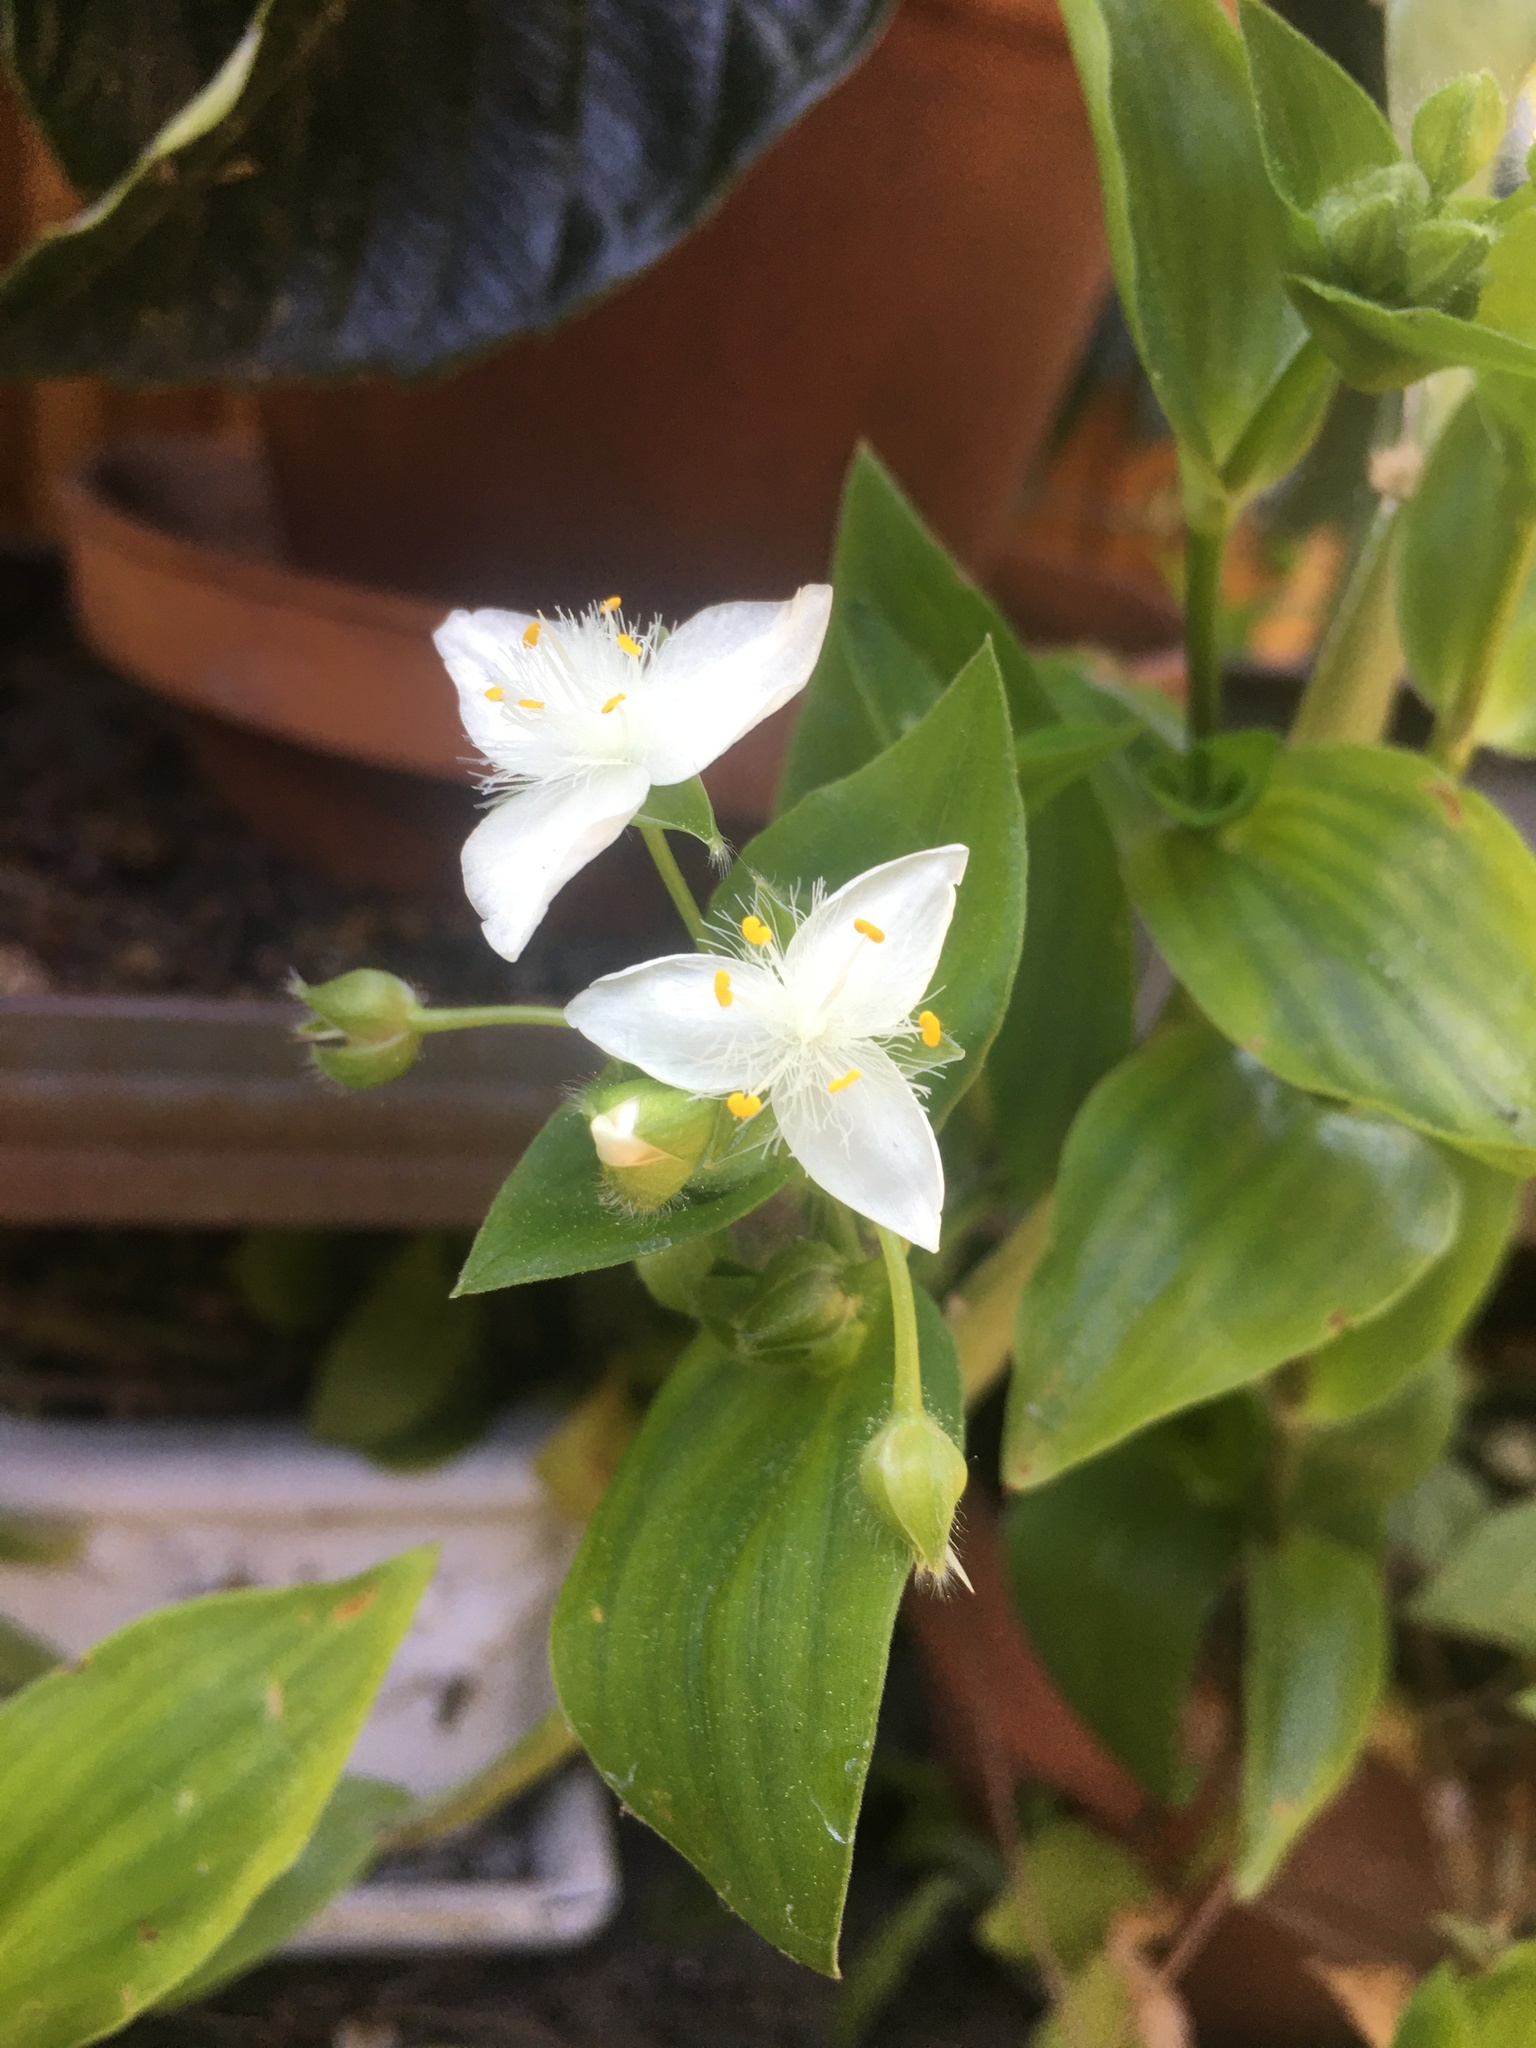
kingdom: Plantae
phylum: Tracheophyta
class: Liliopsida
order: Commelinales
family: Commelinaceae
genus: Tradescantia
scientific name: Tradescantia fluminensis
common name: Wandering-jew
